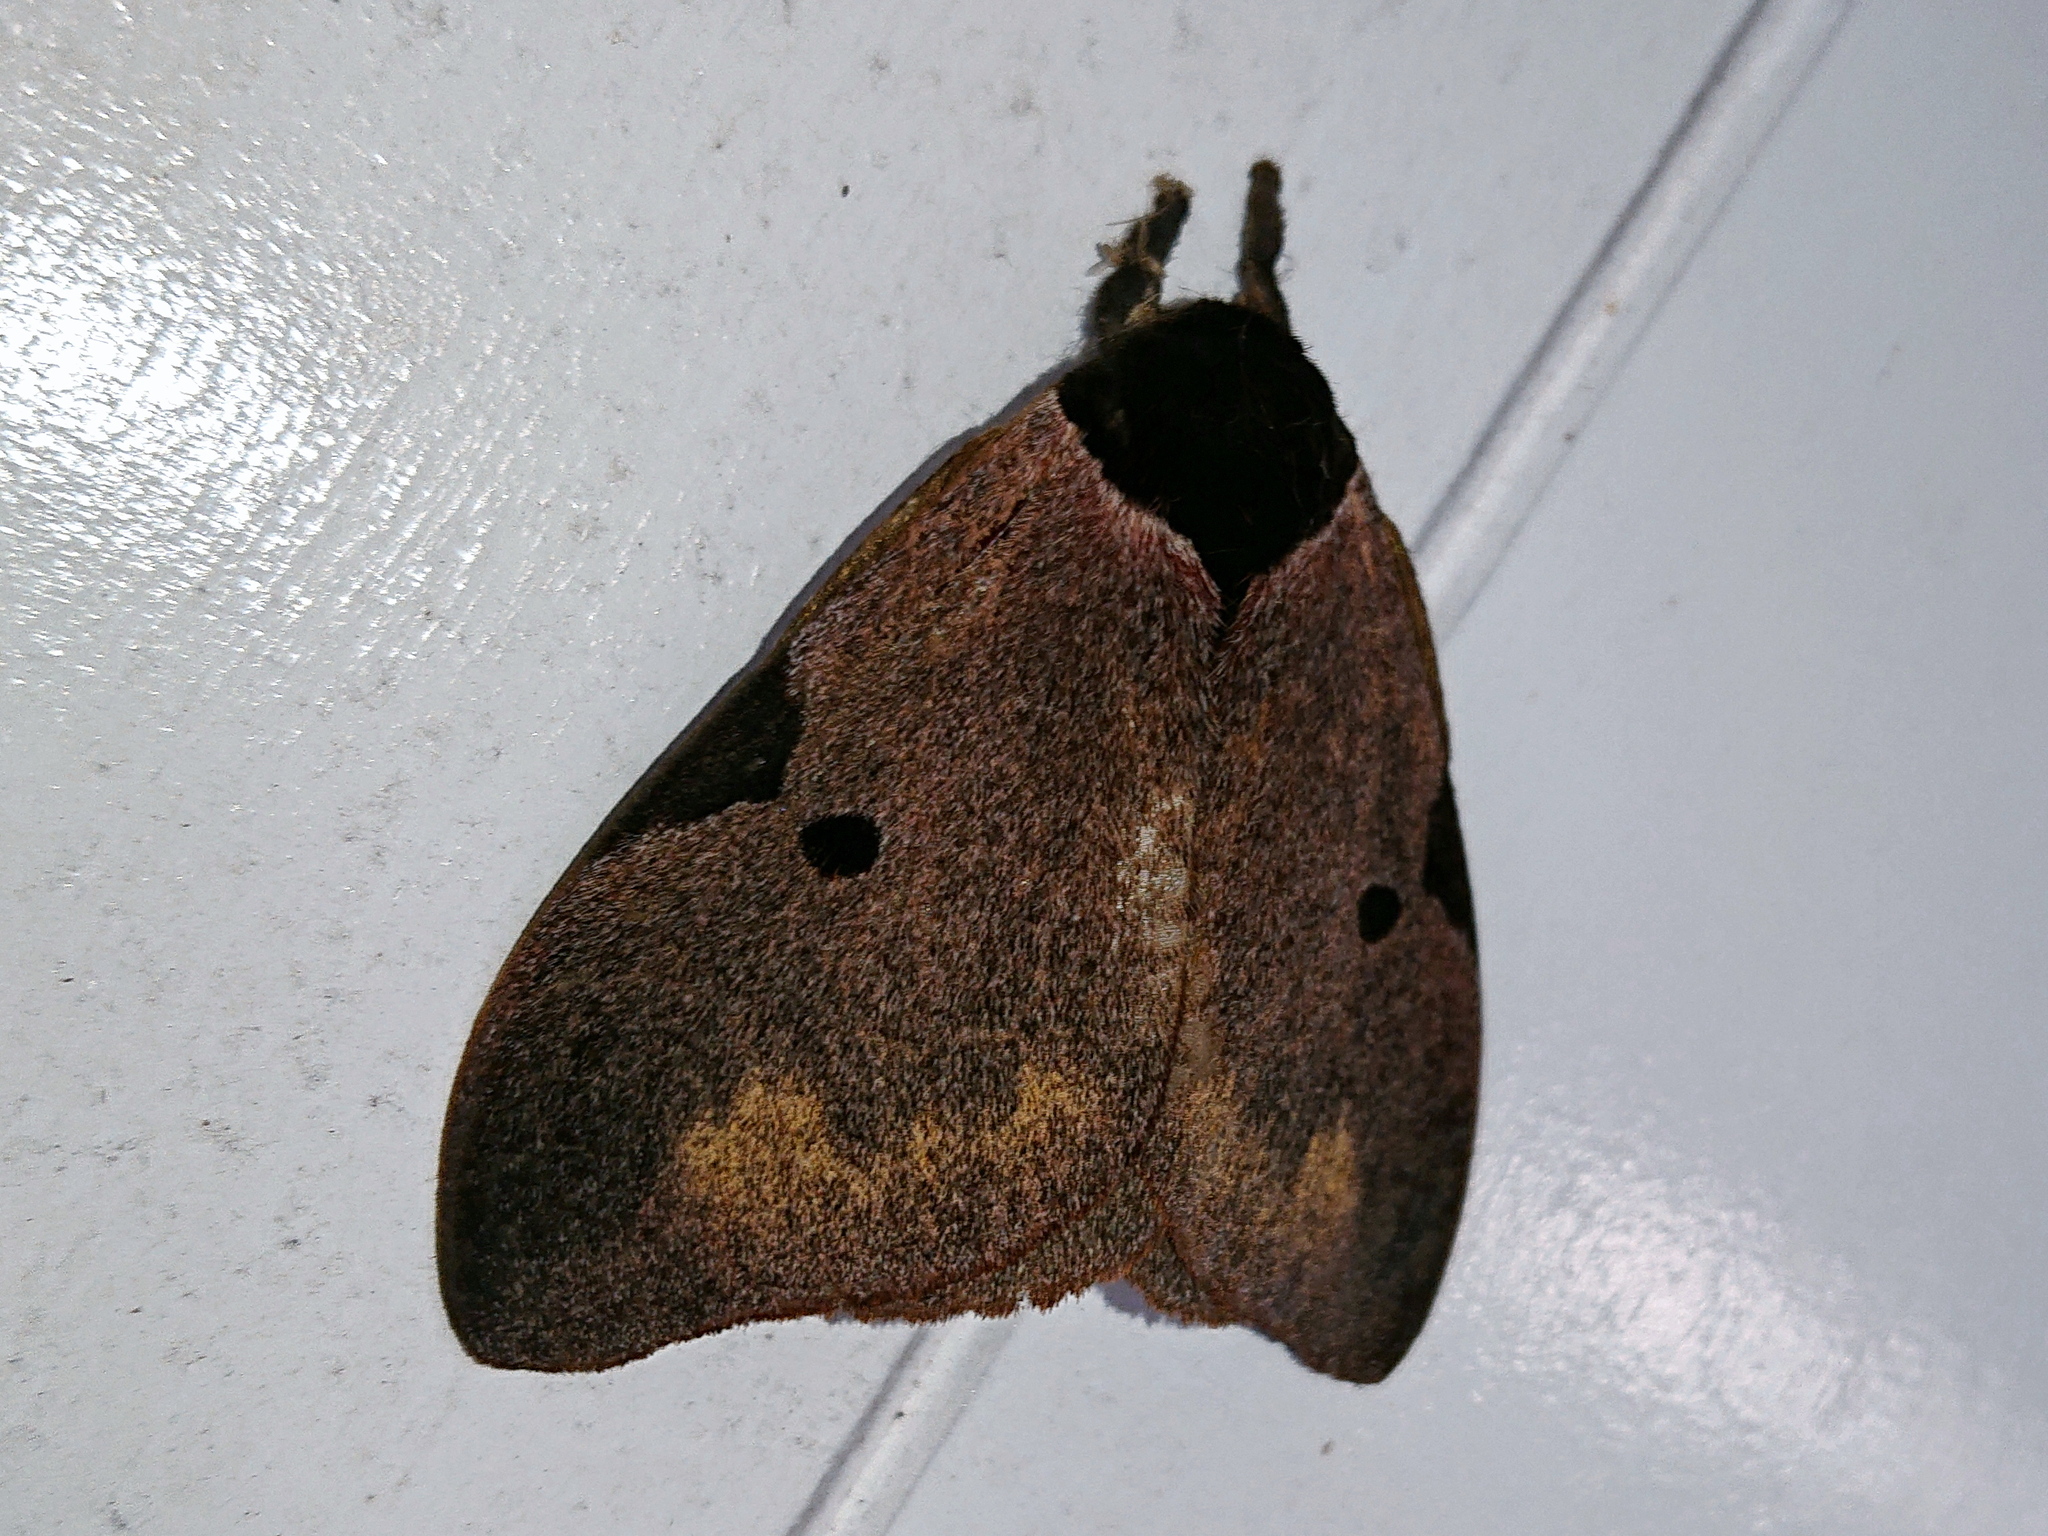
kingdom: Animalia
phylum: Arthropoda
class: Insecta
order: Lepidoptera
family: Saturniidae
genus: Dirphia
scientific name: Dirphia fornax
